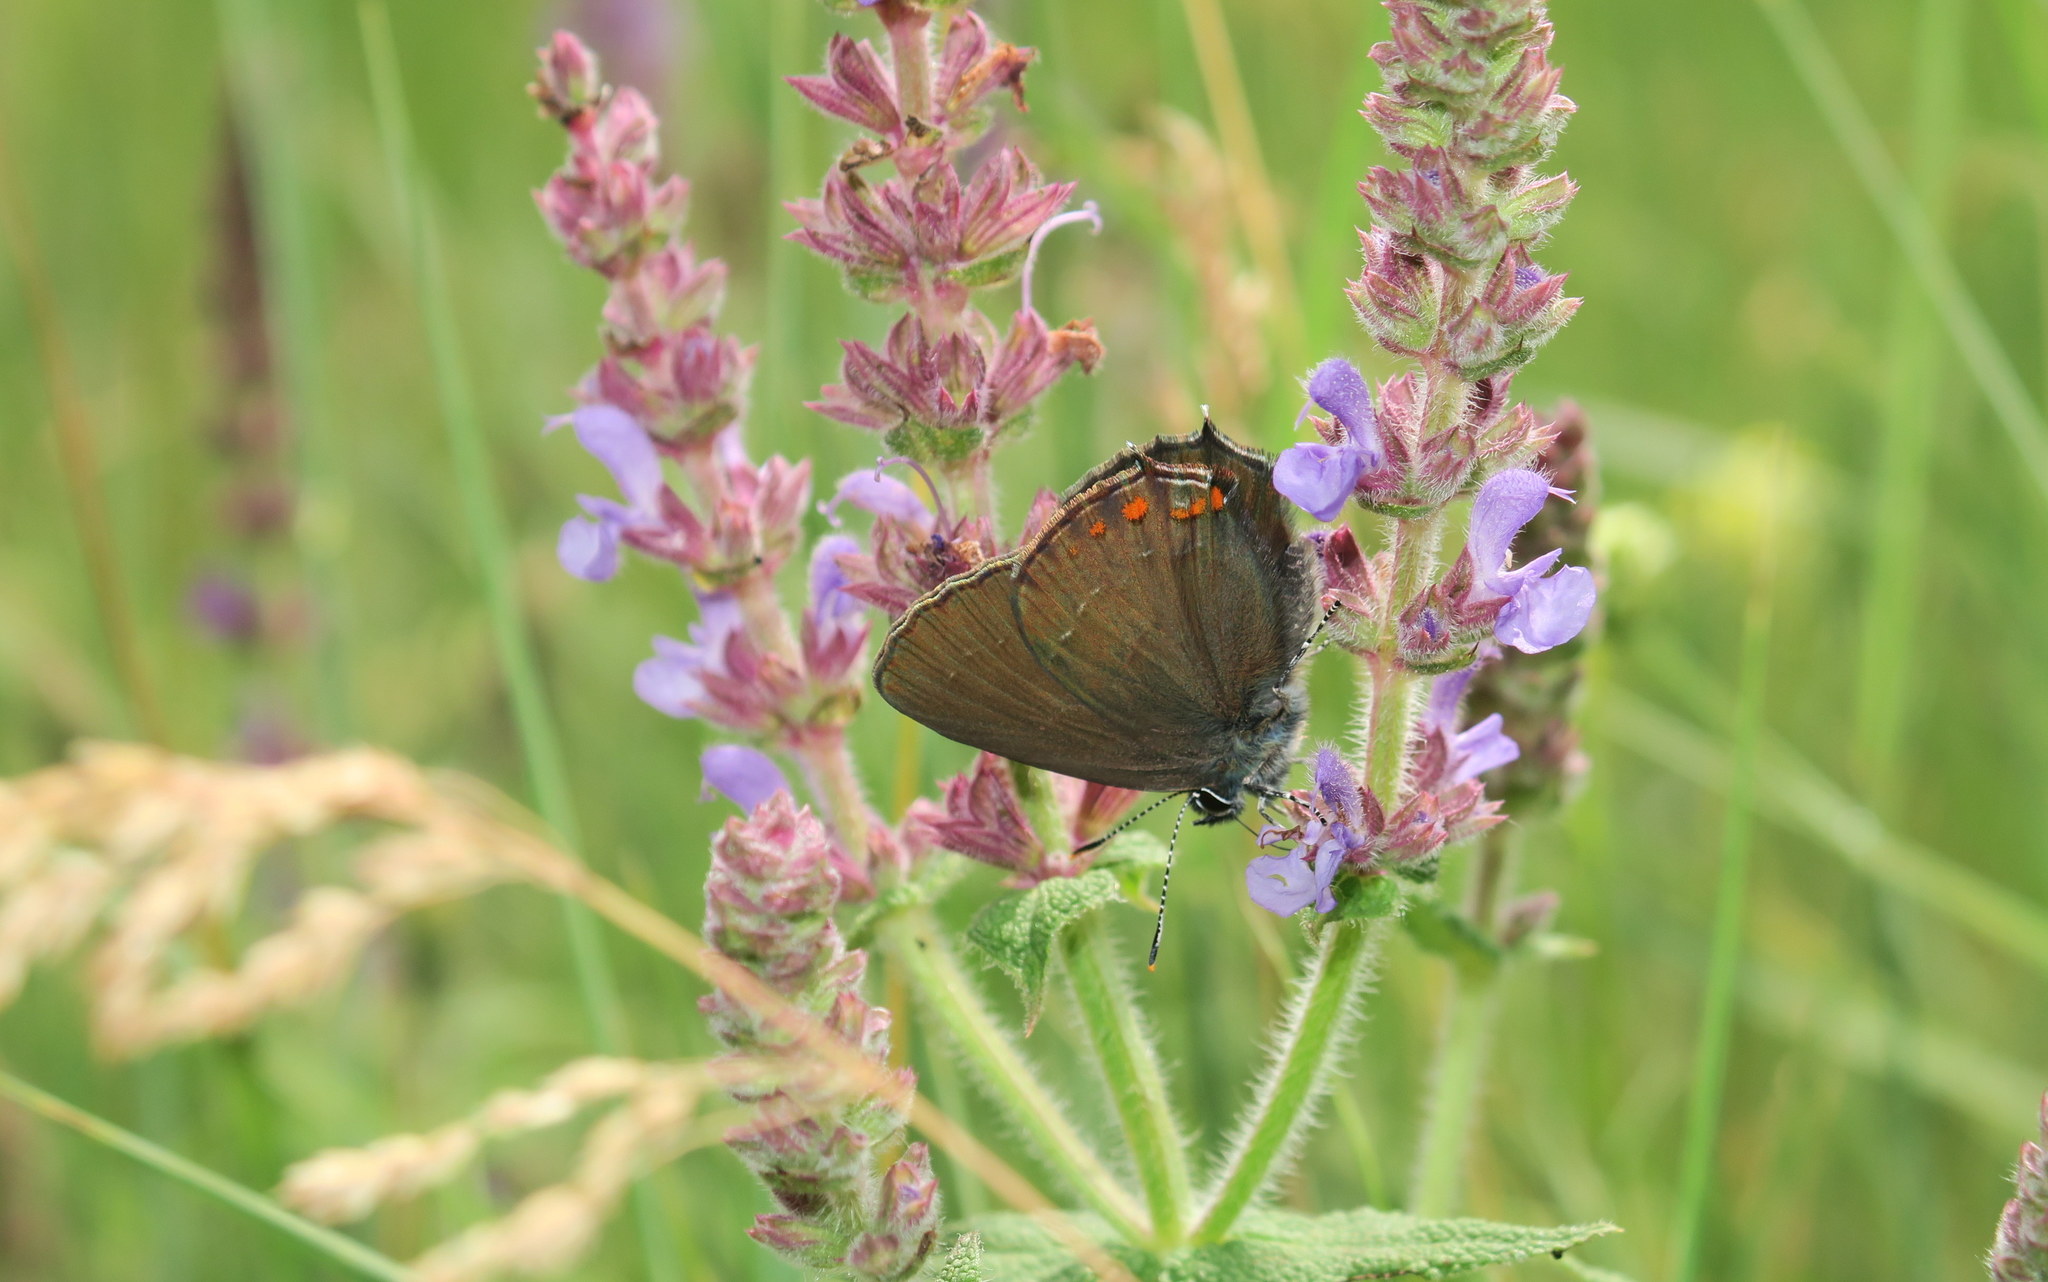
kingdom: Animalia
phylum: Arthropoda
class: Insecta
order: Lepidoptera
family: Lycaenidae
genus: Nordmannia
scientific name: Nordmannia ilicis
